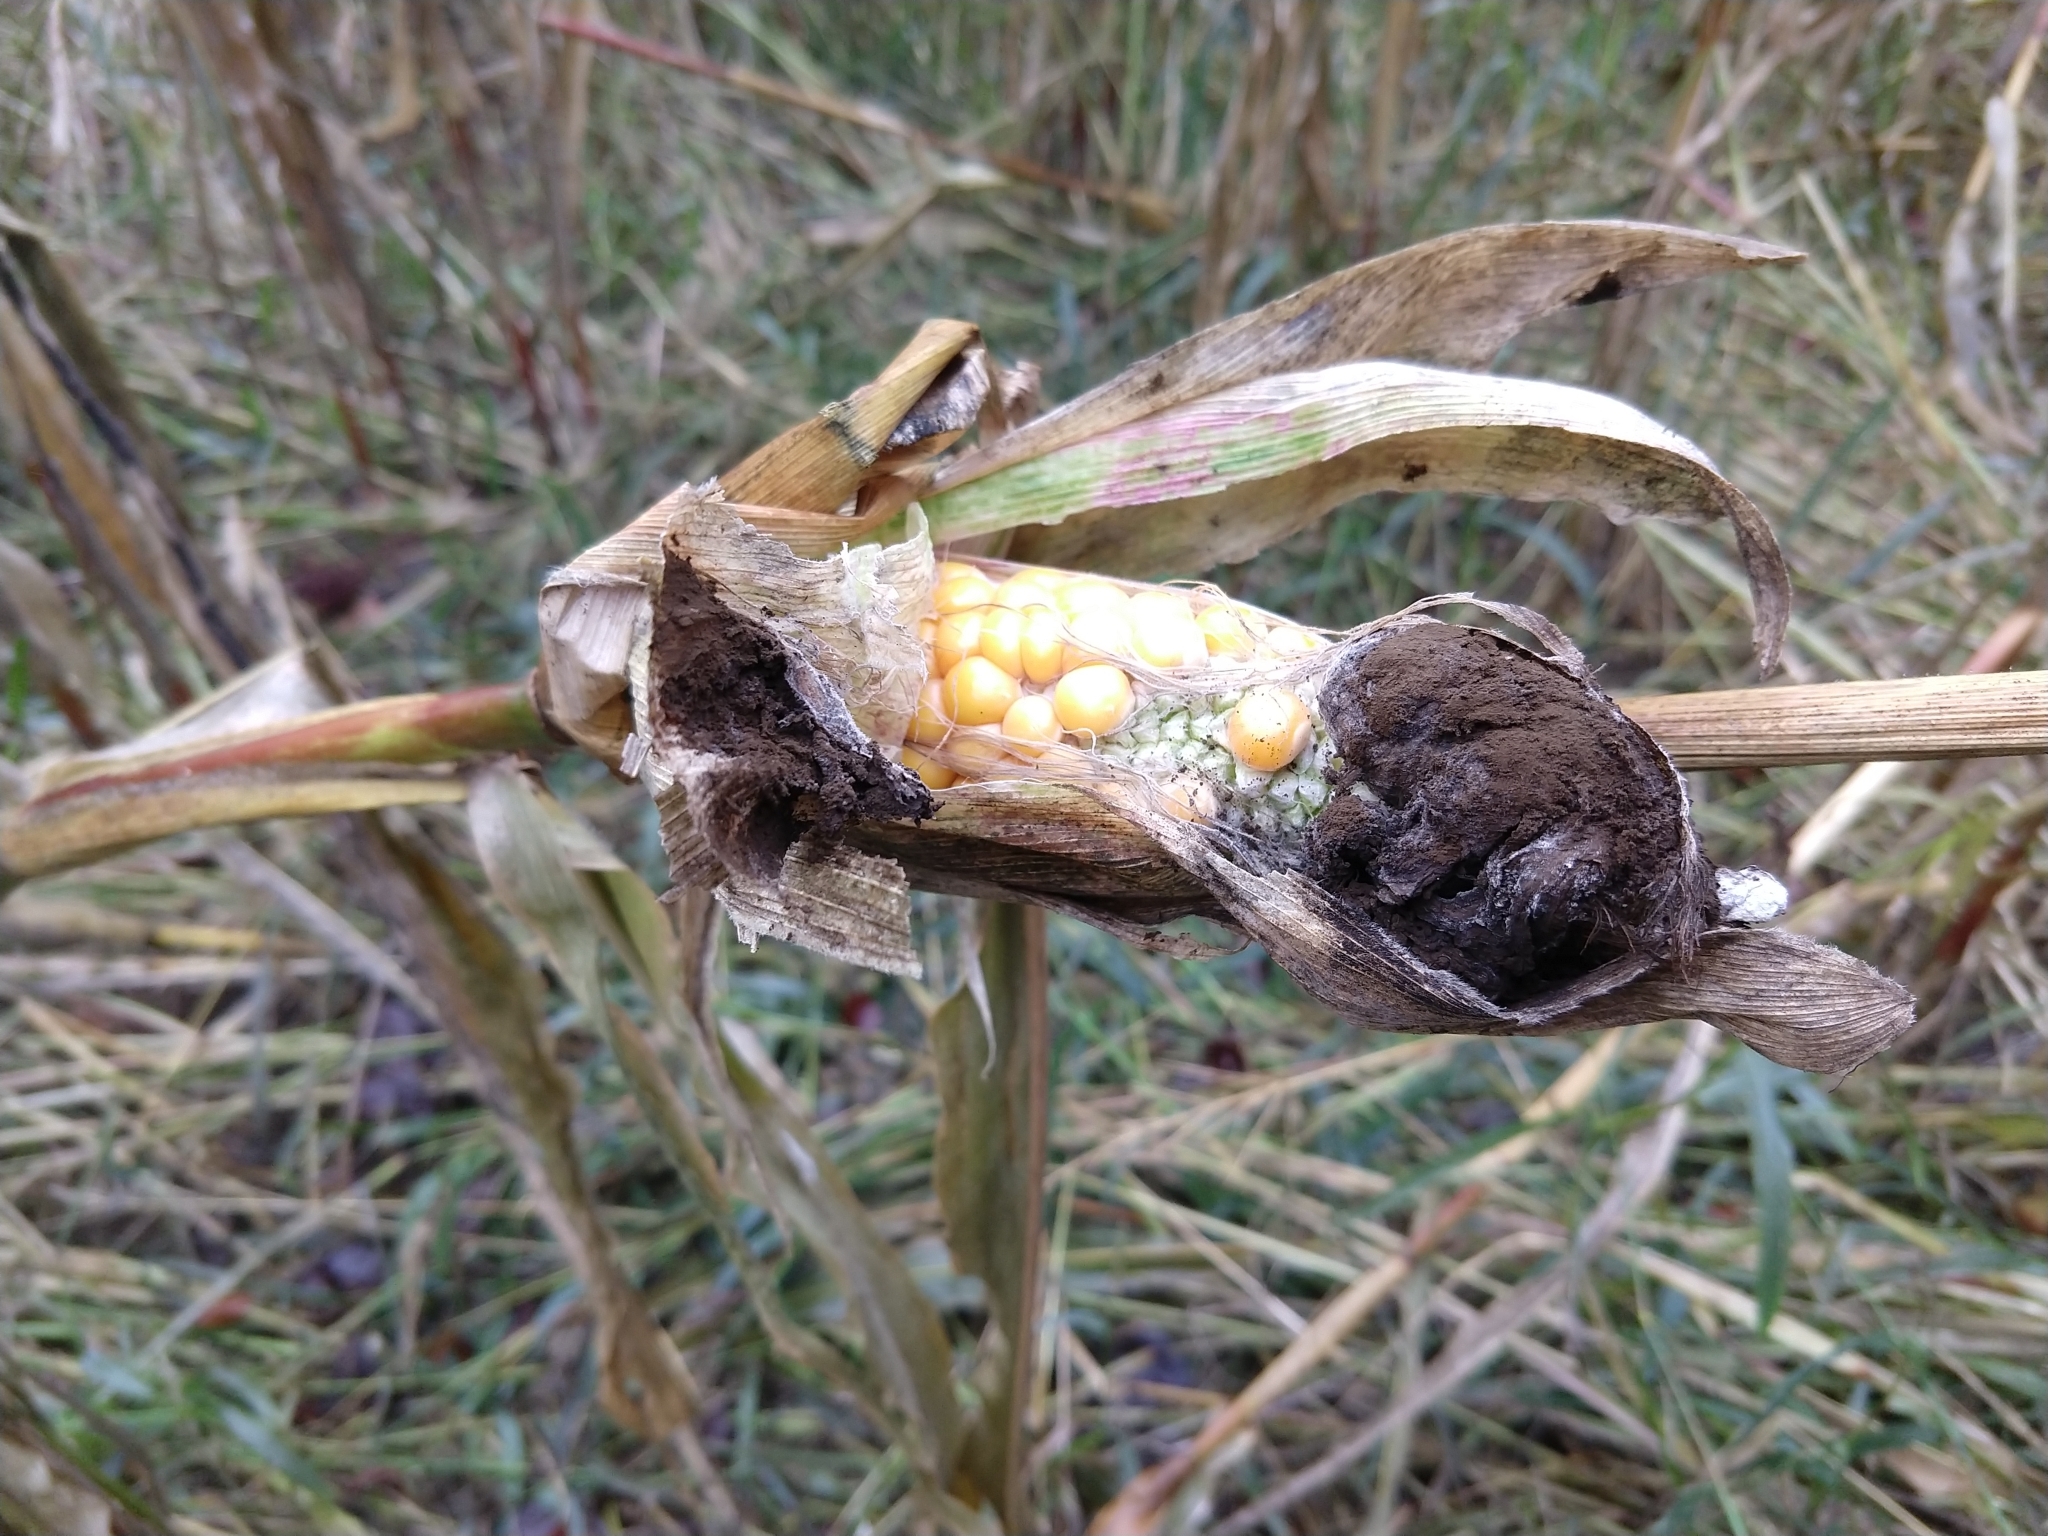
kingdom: Fungi
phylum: Basidiomycota
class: Ustilaginomycetes
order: Ustilaginales
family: Ustilaginaceae
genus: Mycosarcoma
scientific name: Mycosarcoma maydis
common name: Corn smut
